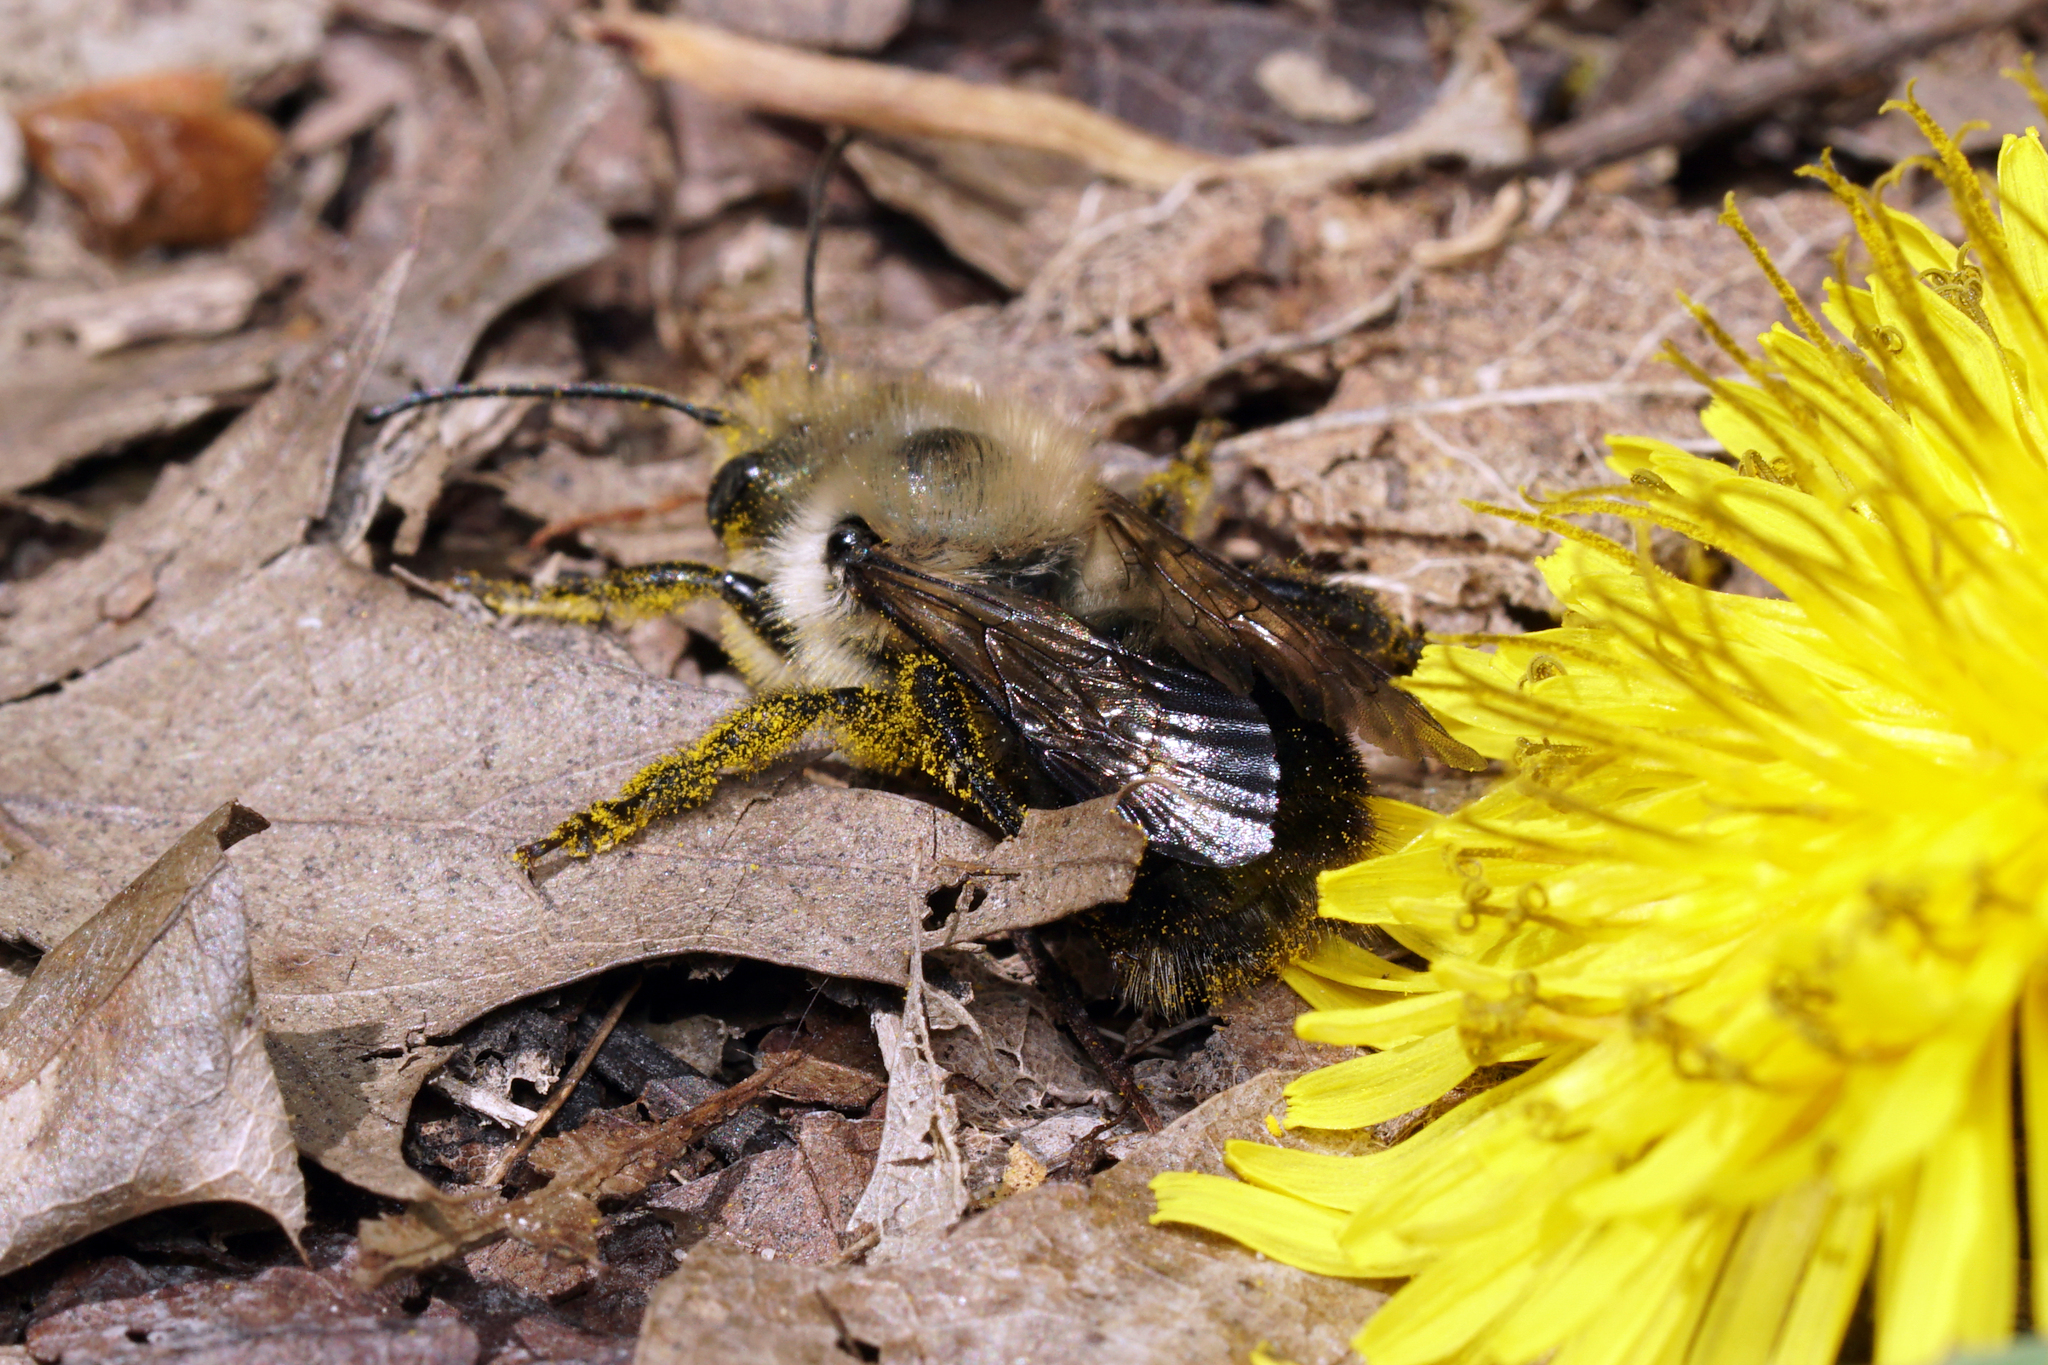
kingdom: Animalia
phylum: Arthropoda
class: Insecta
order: Hymenoptera
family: Megachilidae
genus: Osmia
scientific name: Osmia bucephala
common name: Bufflehead mason bee
